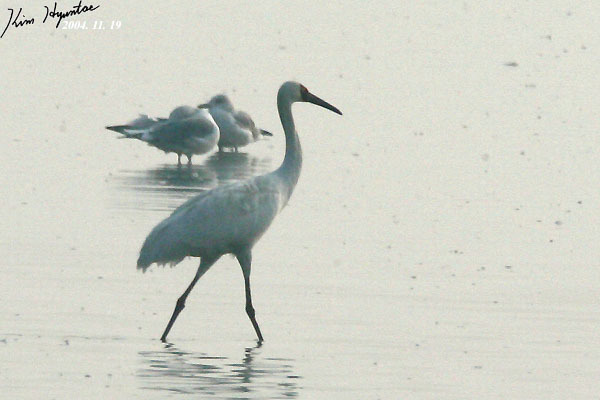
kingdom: Animalia
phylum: Chordata
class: Aves
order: Gruiformes
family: Gruidae
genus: Grus
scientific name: Grus leucogeranus
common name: Siberian crane
